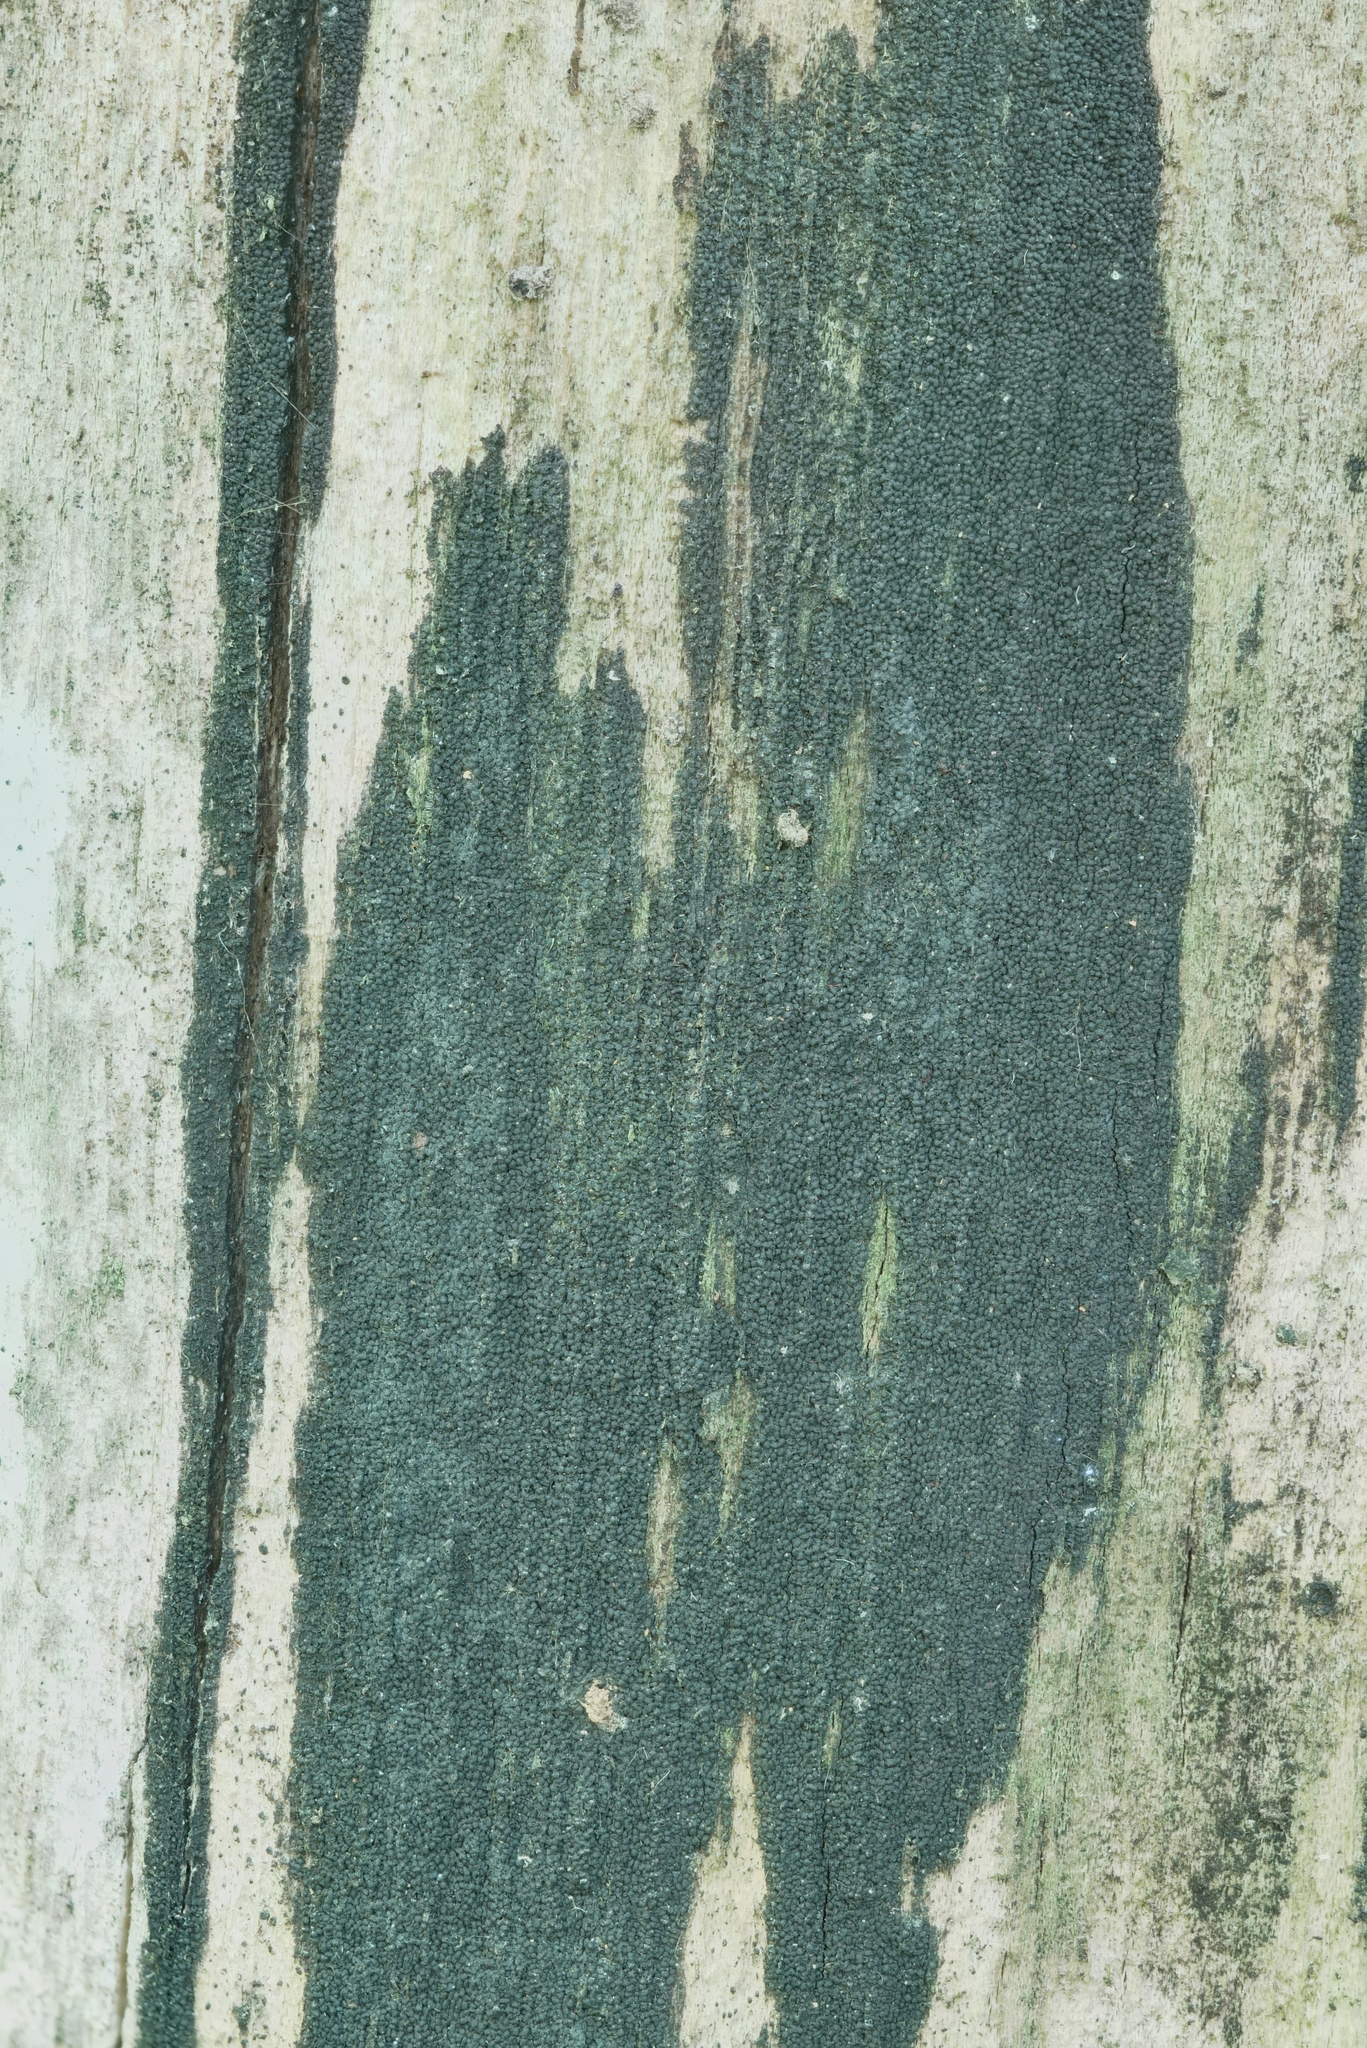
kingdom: Fungi
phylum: Basidiomycota
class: Agaricomycetes
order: Trechisporales
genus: Sertulicium
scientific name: Sertulicium niveocremeum
